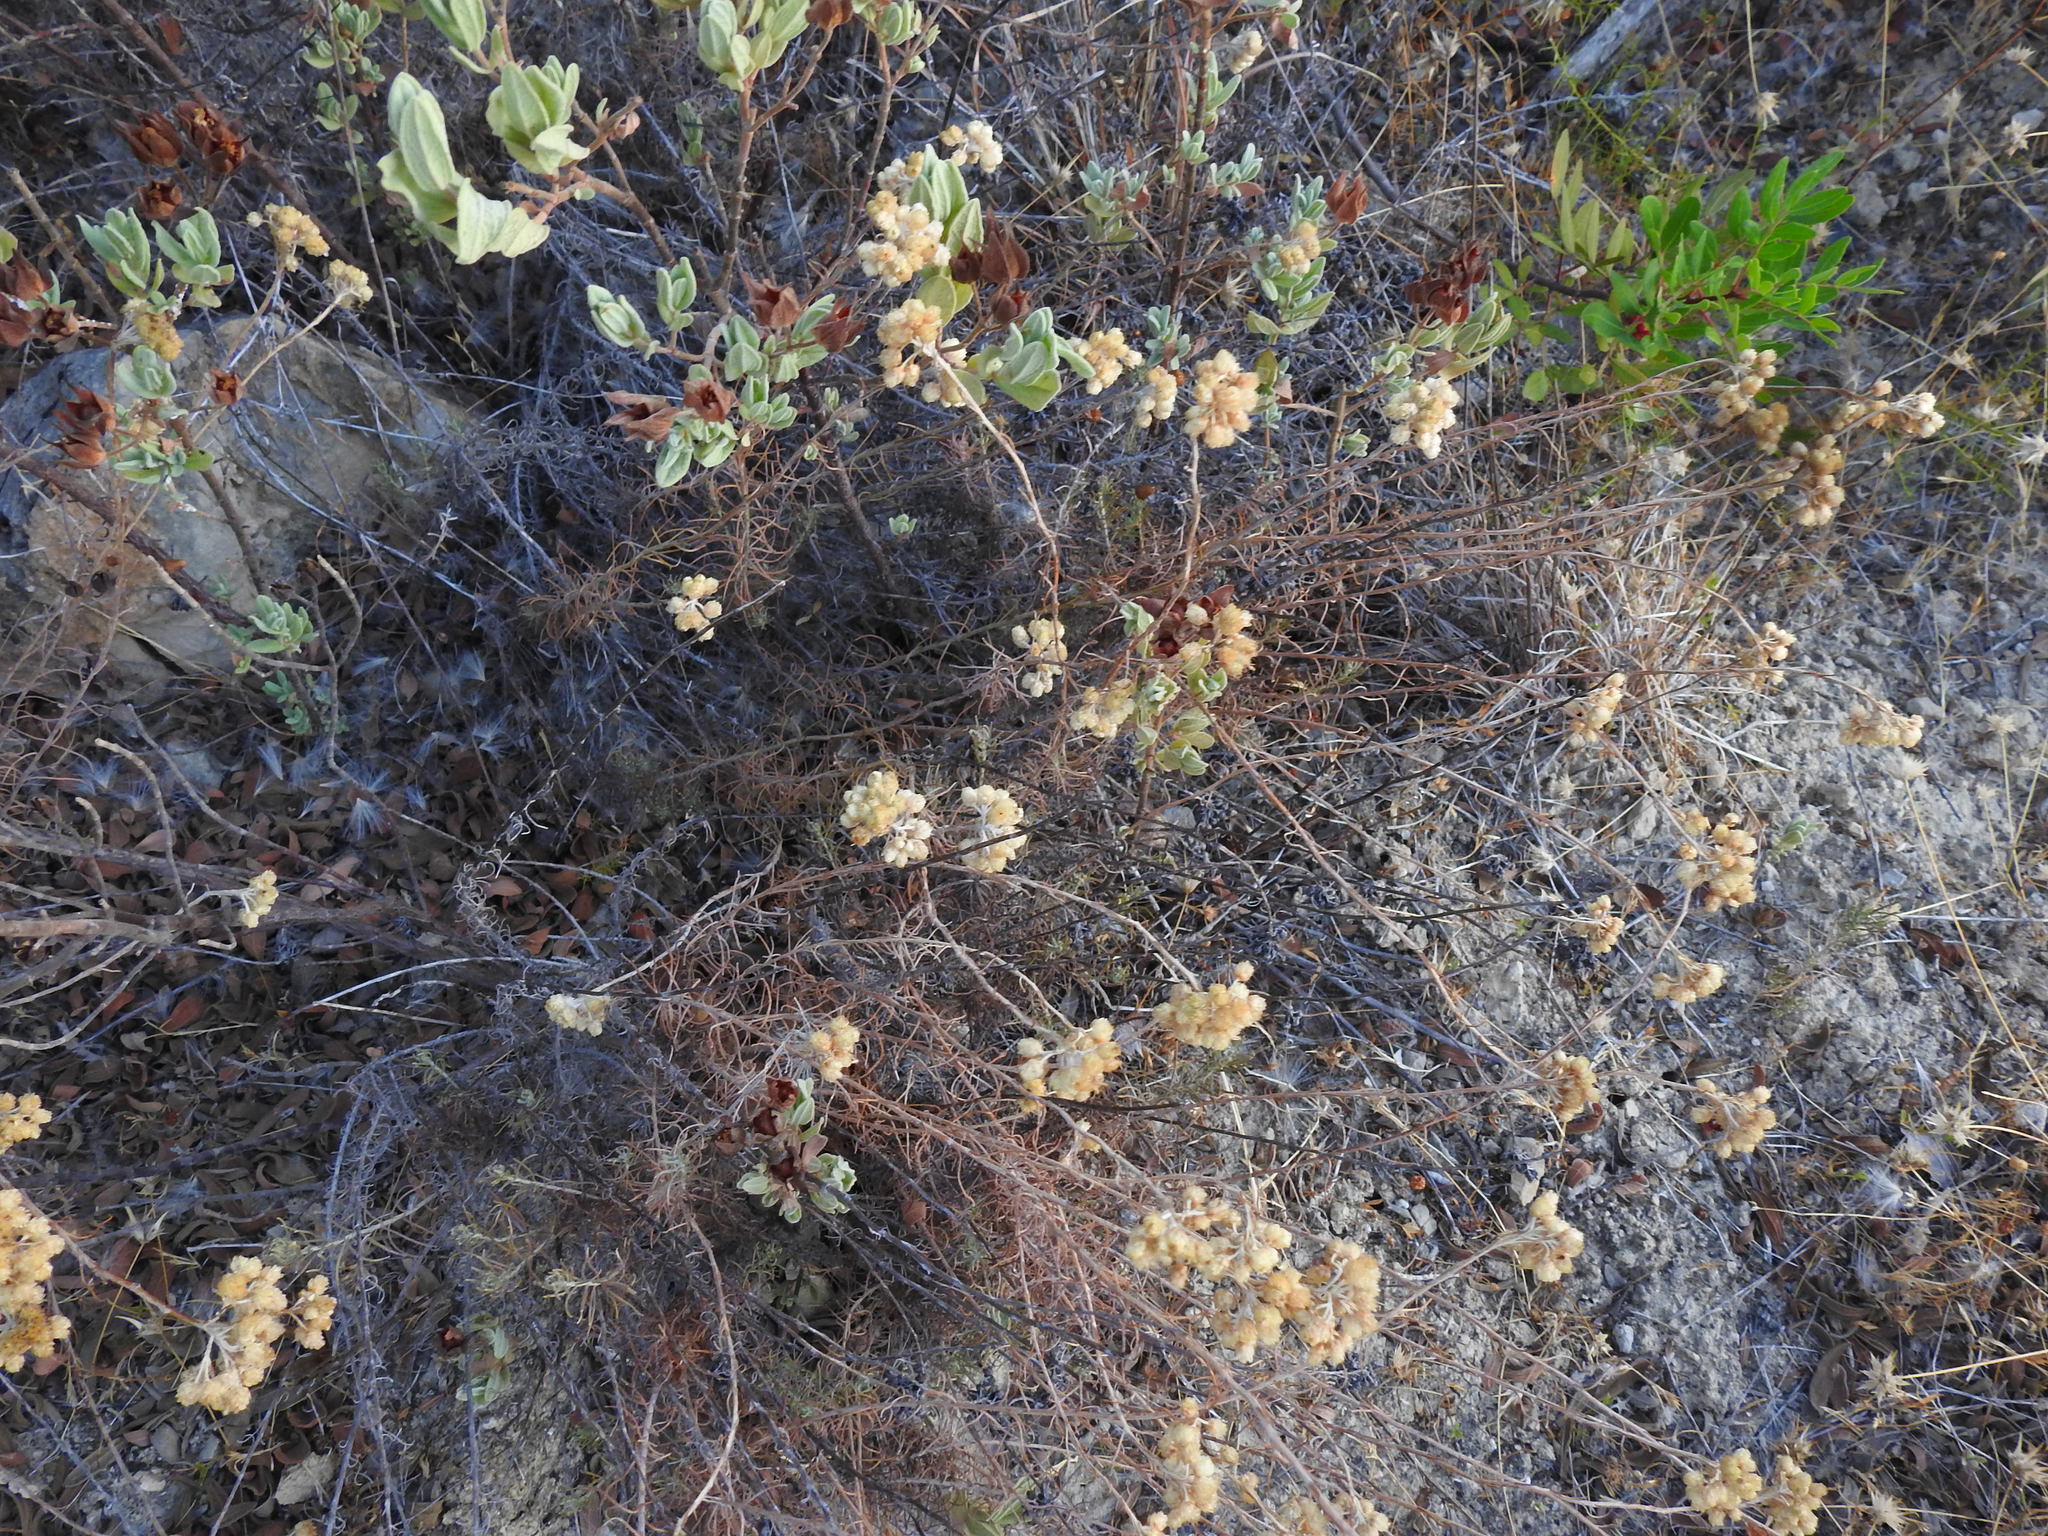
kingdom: Plantae
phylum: Tracheophyta
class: Magnoliopsida
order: Asterales
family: Asteraceae
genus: Helichrysum
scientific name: Helichrysum stoechas
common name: Goldilocks
